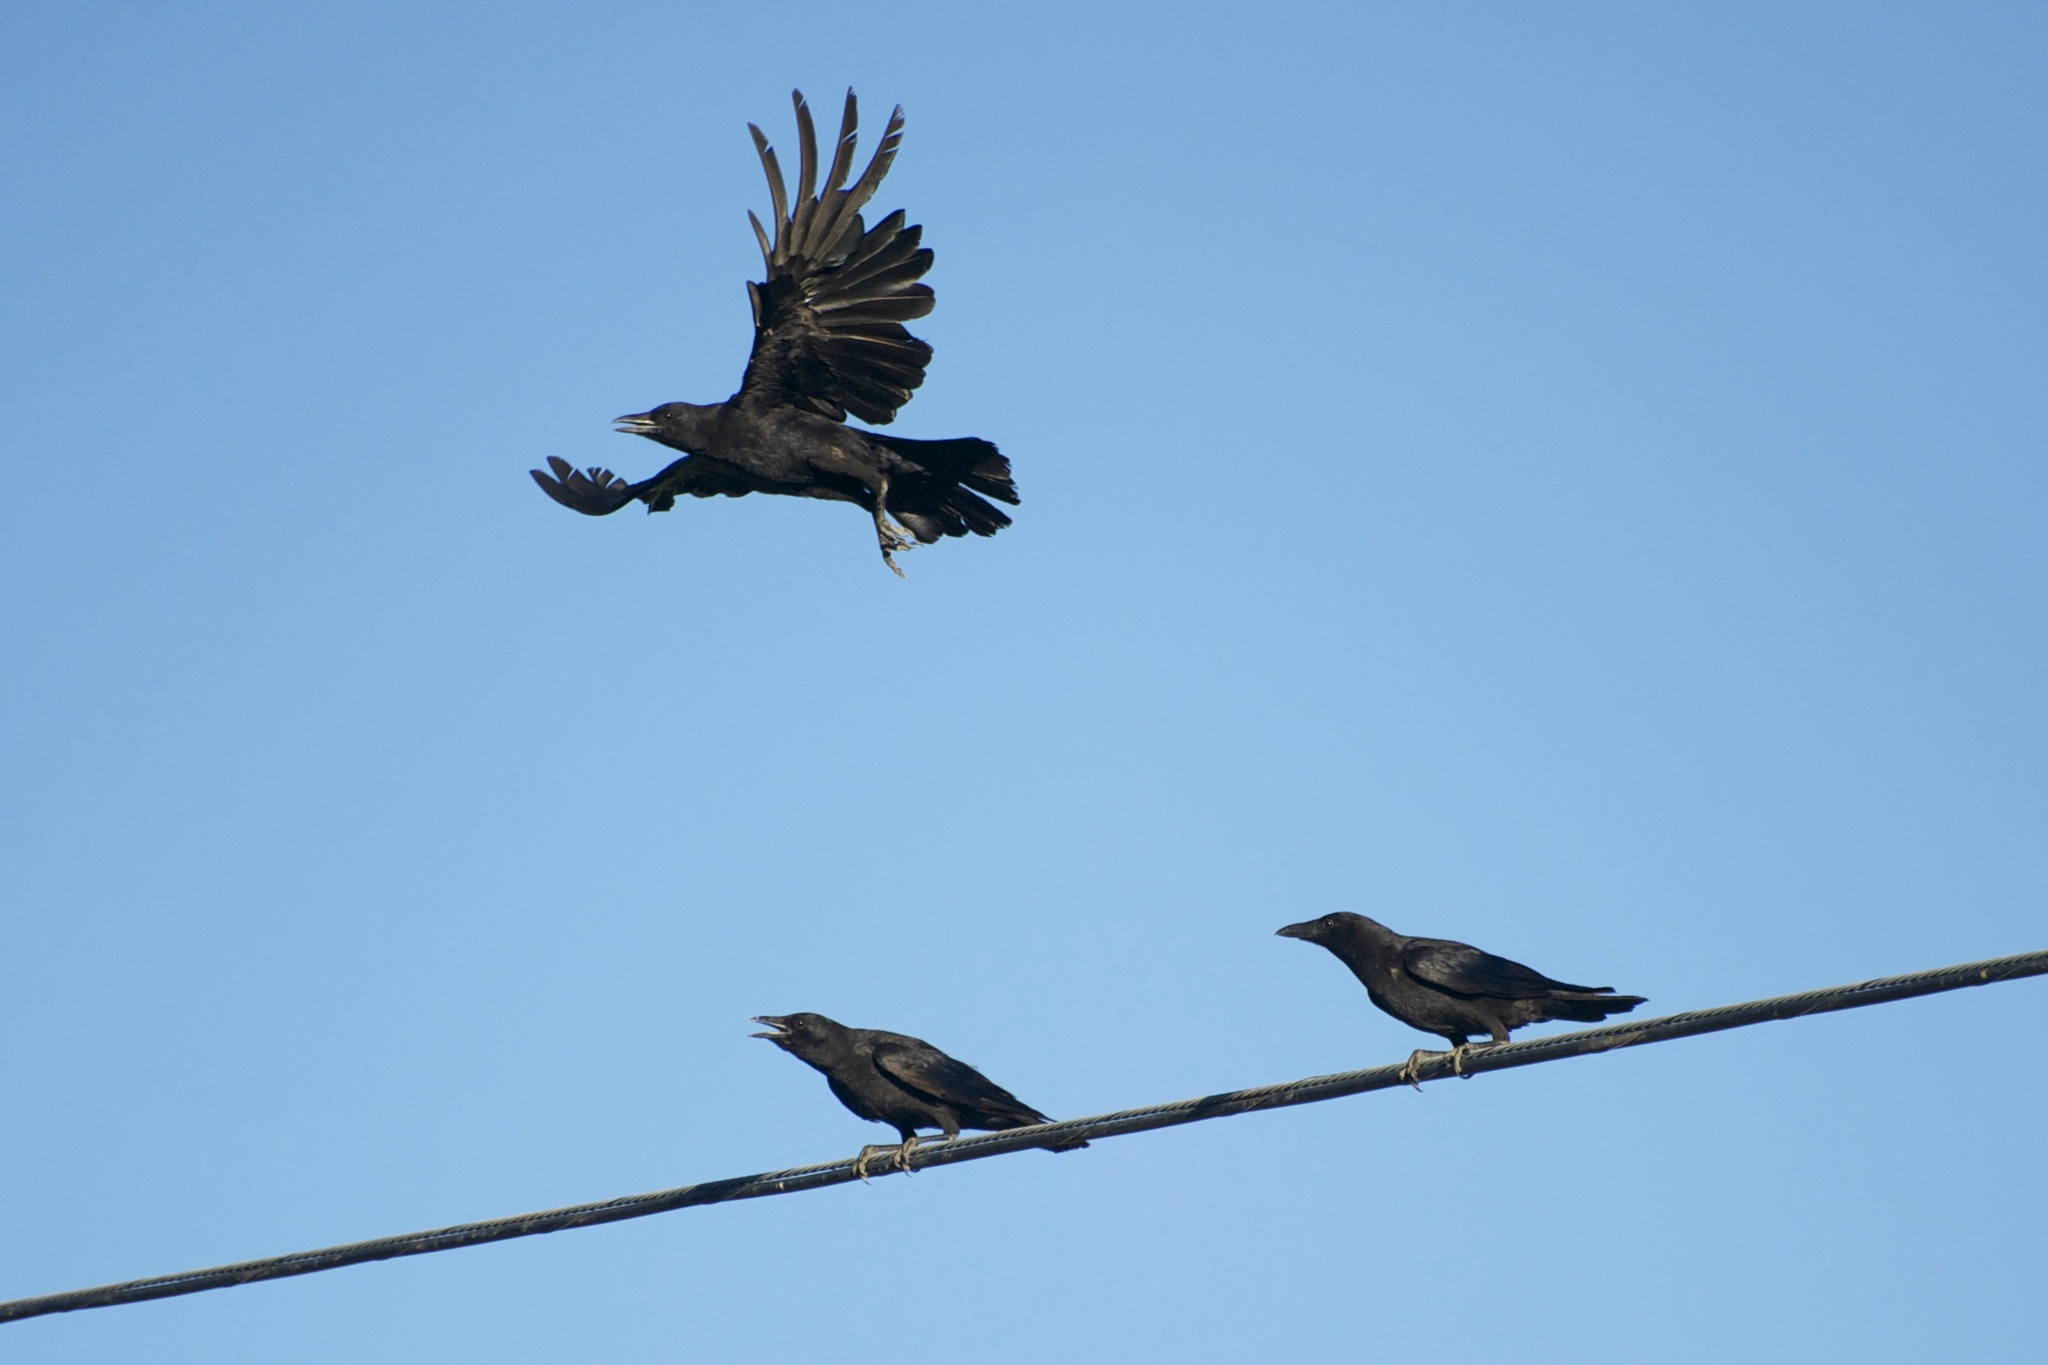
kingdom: Animalia
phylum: Chordata
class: Aves
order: Passeriformes
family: Corvidae
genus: Corvus
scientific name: Corvus brachyrhynchos
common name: American crow
